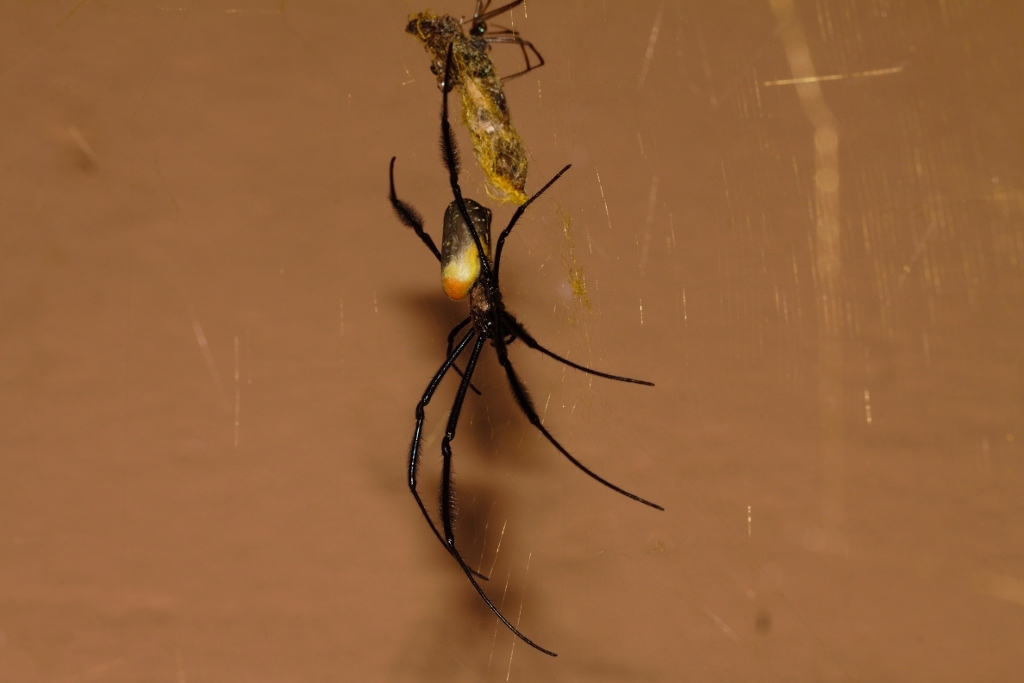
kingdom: Animalia
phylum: Arthropoda
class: Arachnida
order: Araneae
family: Araneidae
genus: Trichonephila
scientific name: Trichonephila fenestrata
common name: Hairy golden orb weaver
